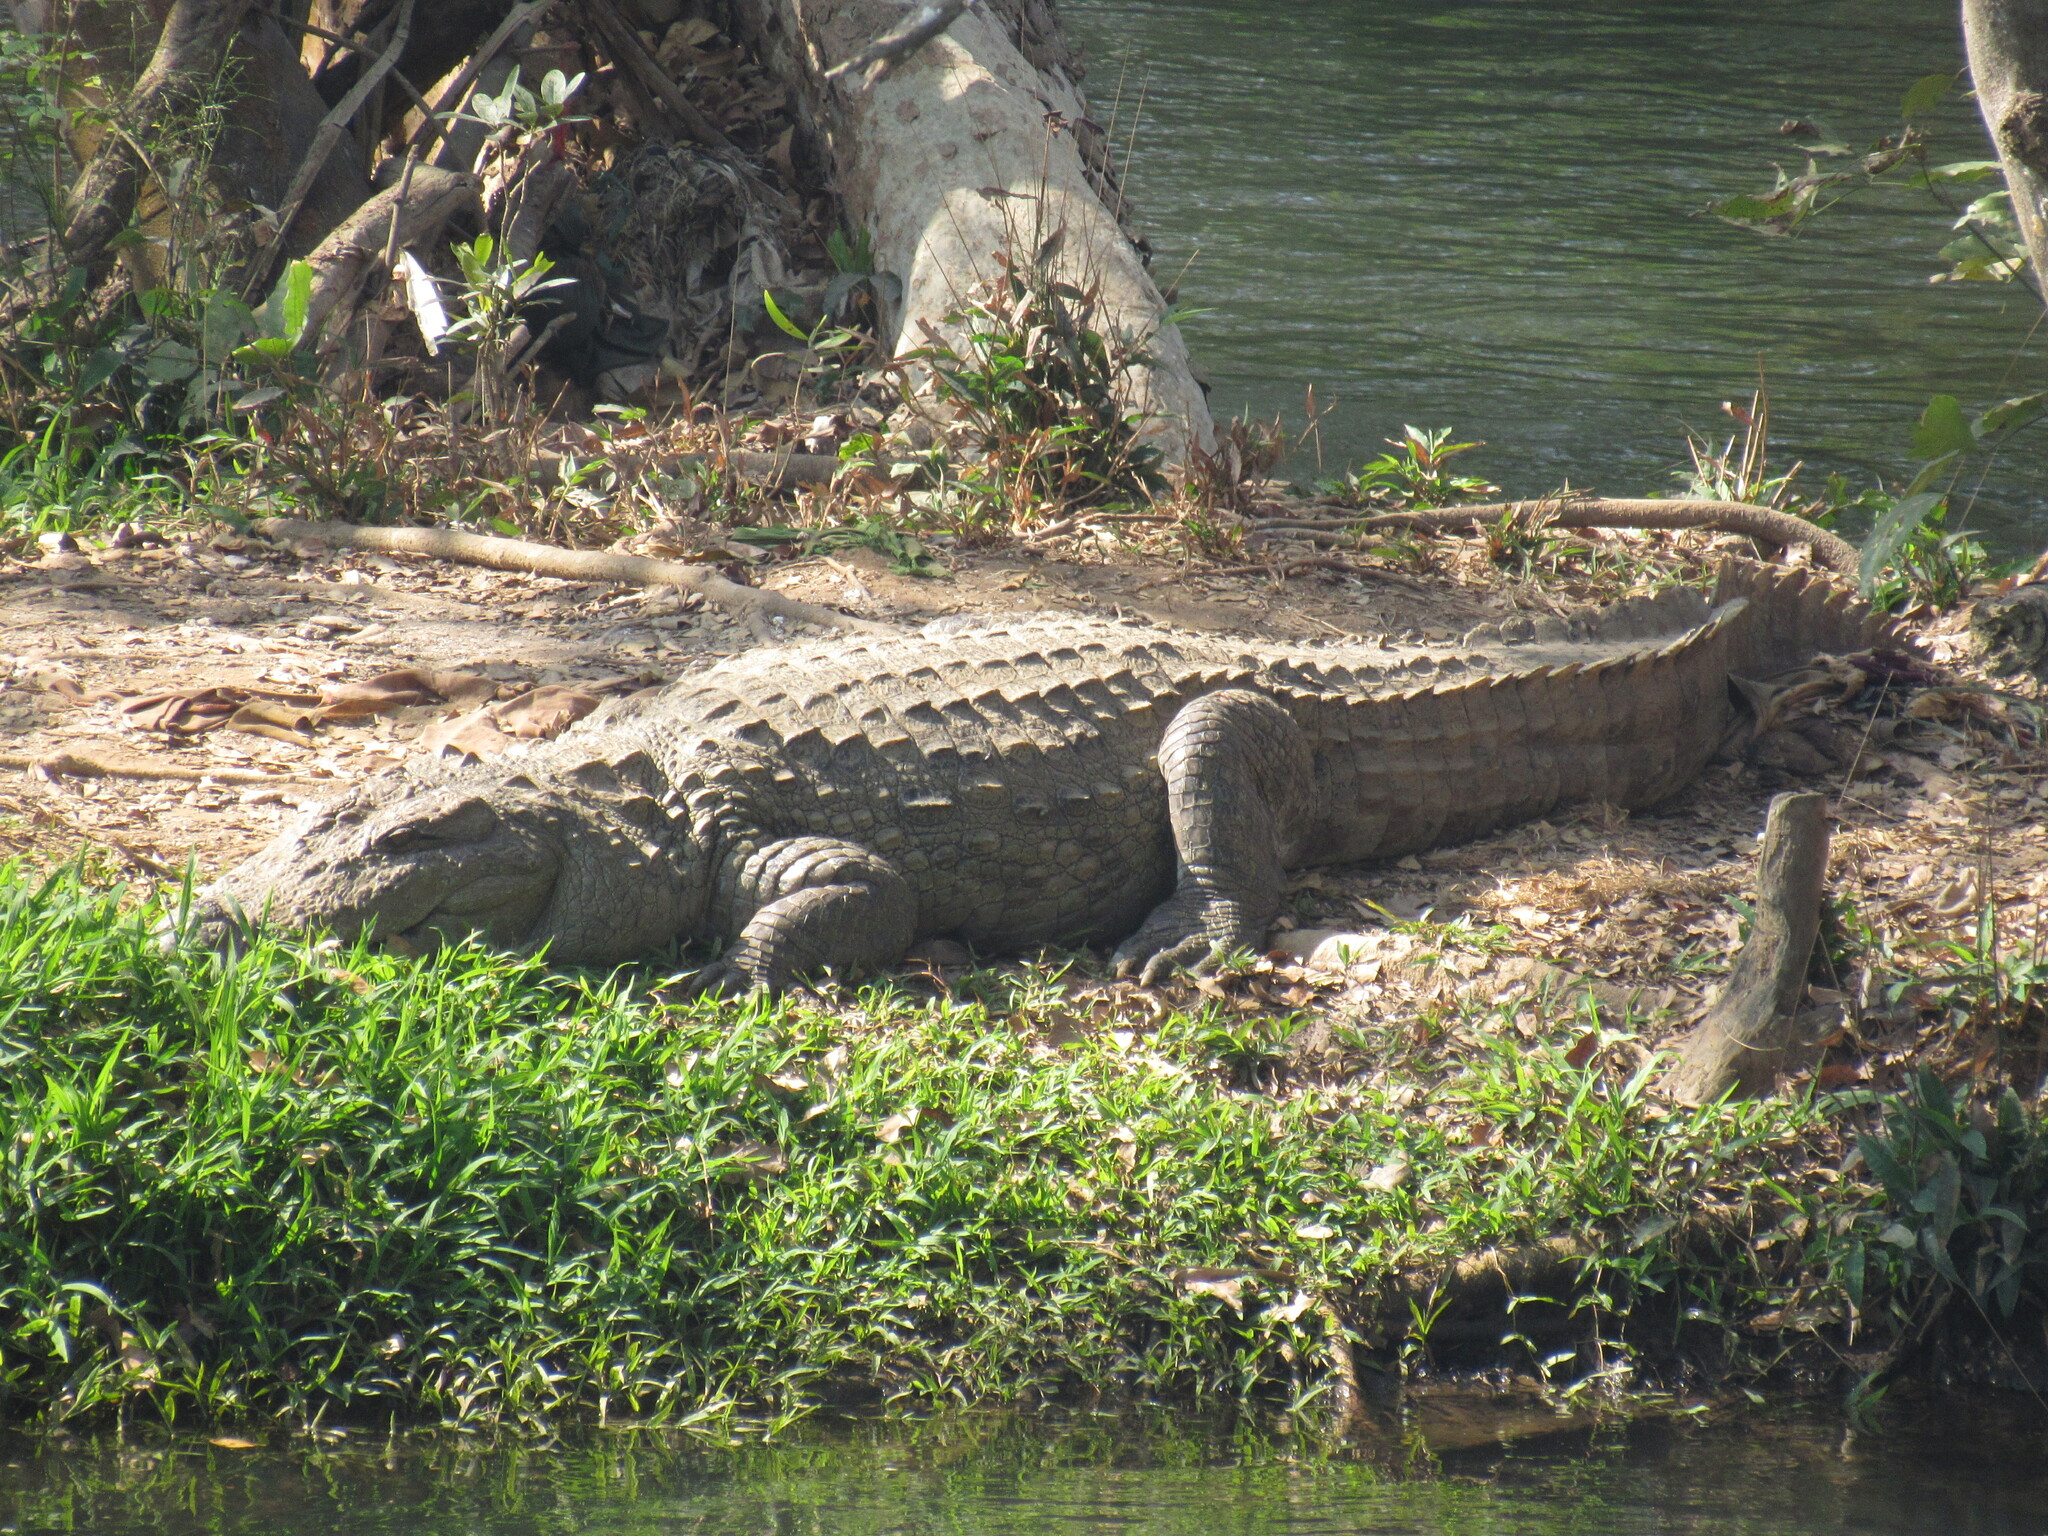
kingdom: Animalia
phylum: Chordata
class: Crocodylia
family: Crocodylidae
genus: Crocodylus
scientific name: Crocodylus palustris
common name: Mugger crocodile
